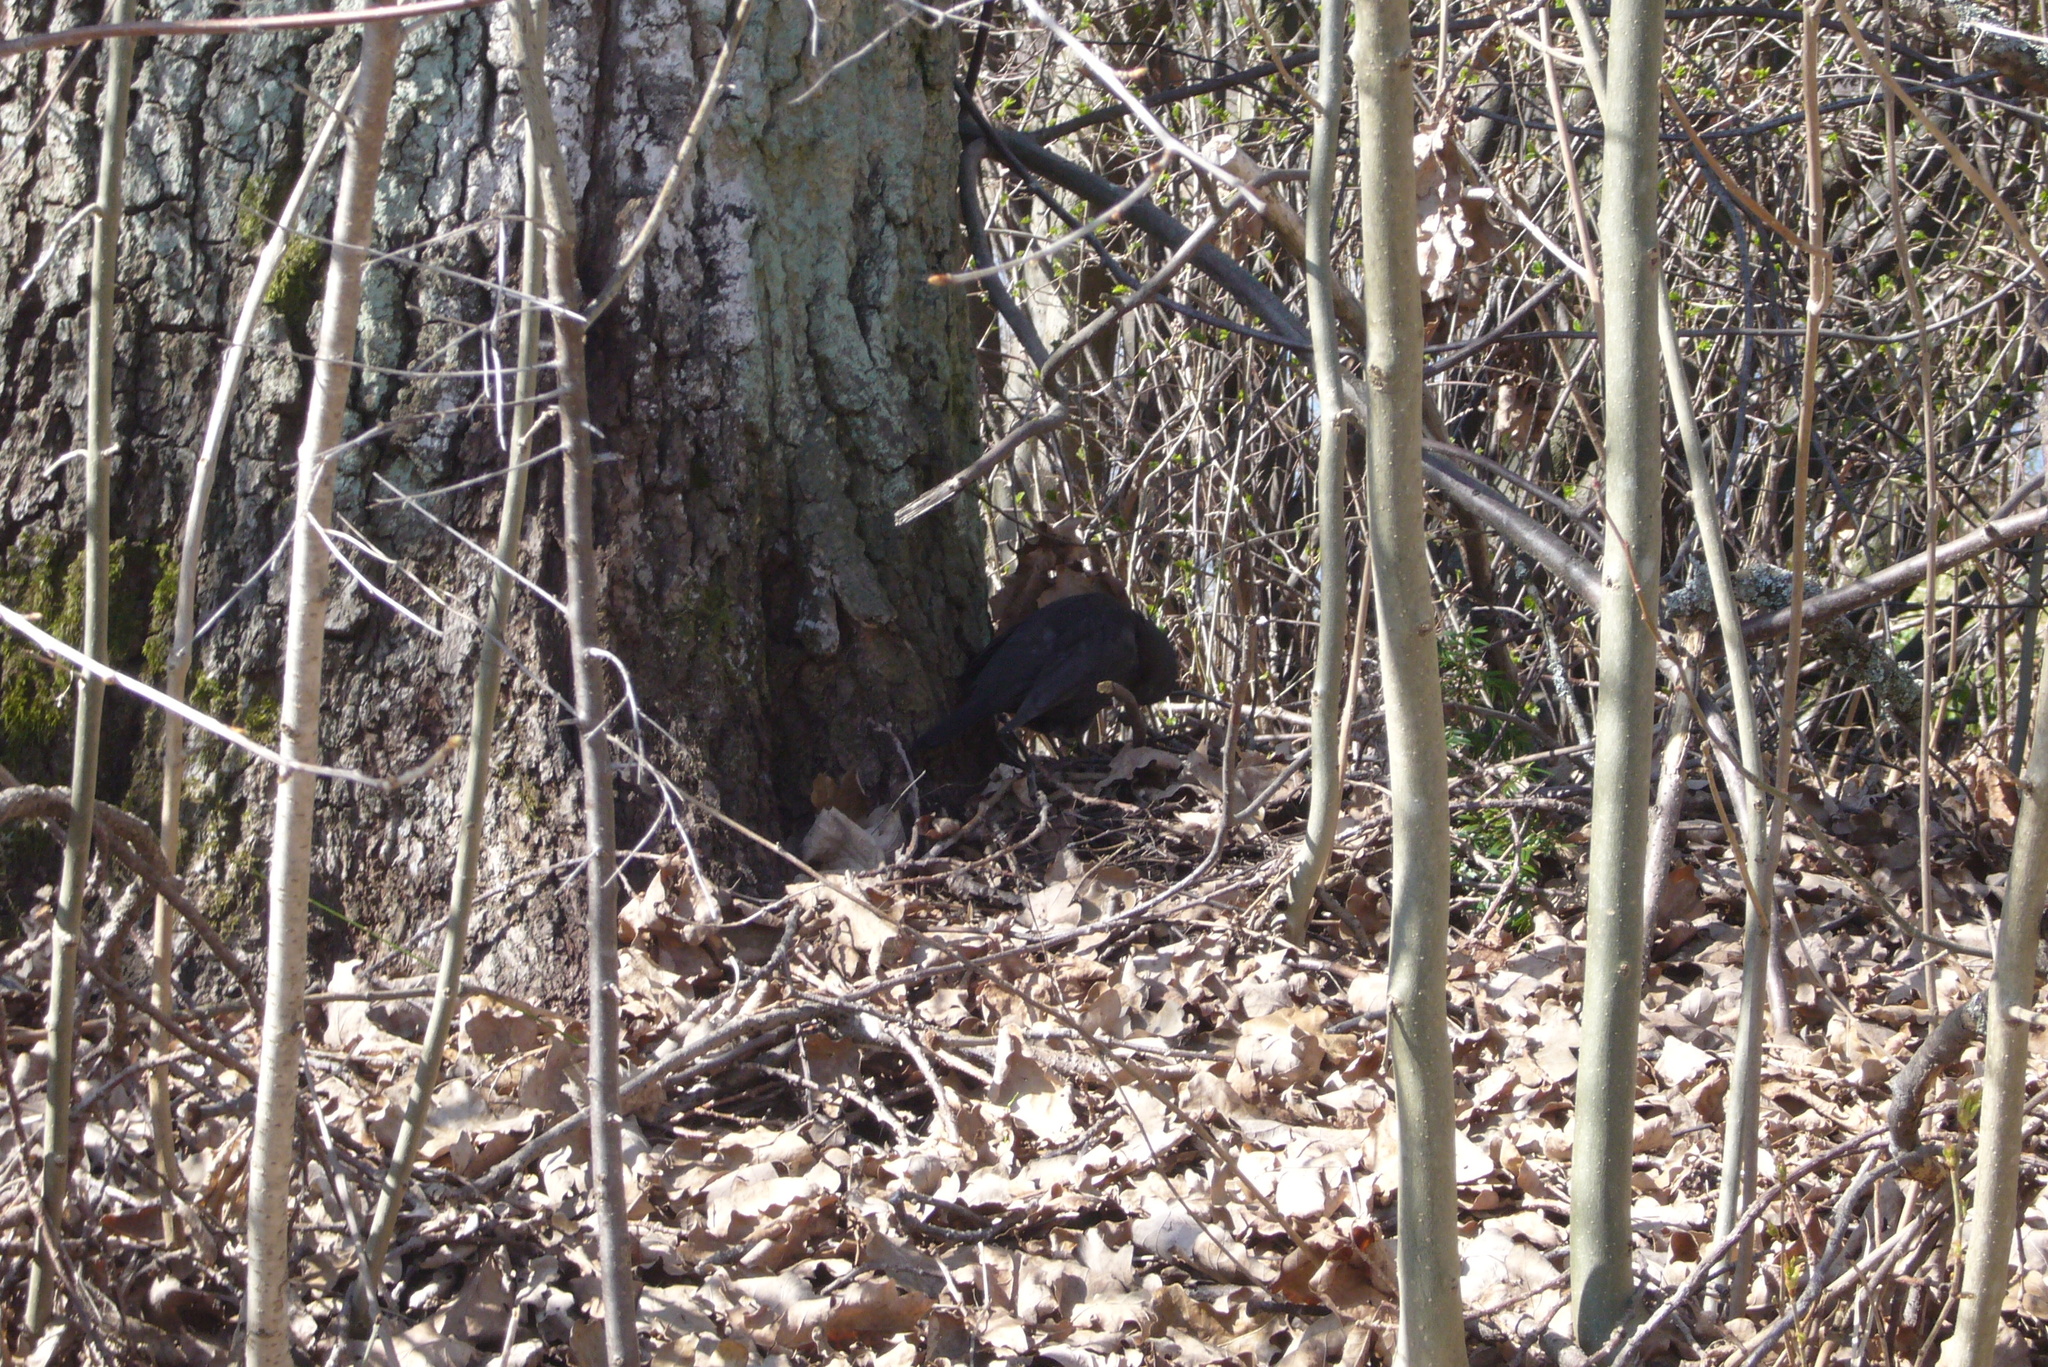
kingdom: Animalia
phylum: Chordata
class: Aves
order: Passeriformes
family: Turdidae
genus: Turdus
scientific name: Turdus merula
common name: Common blackbird
